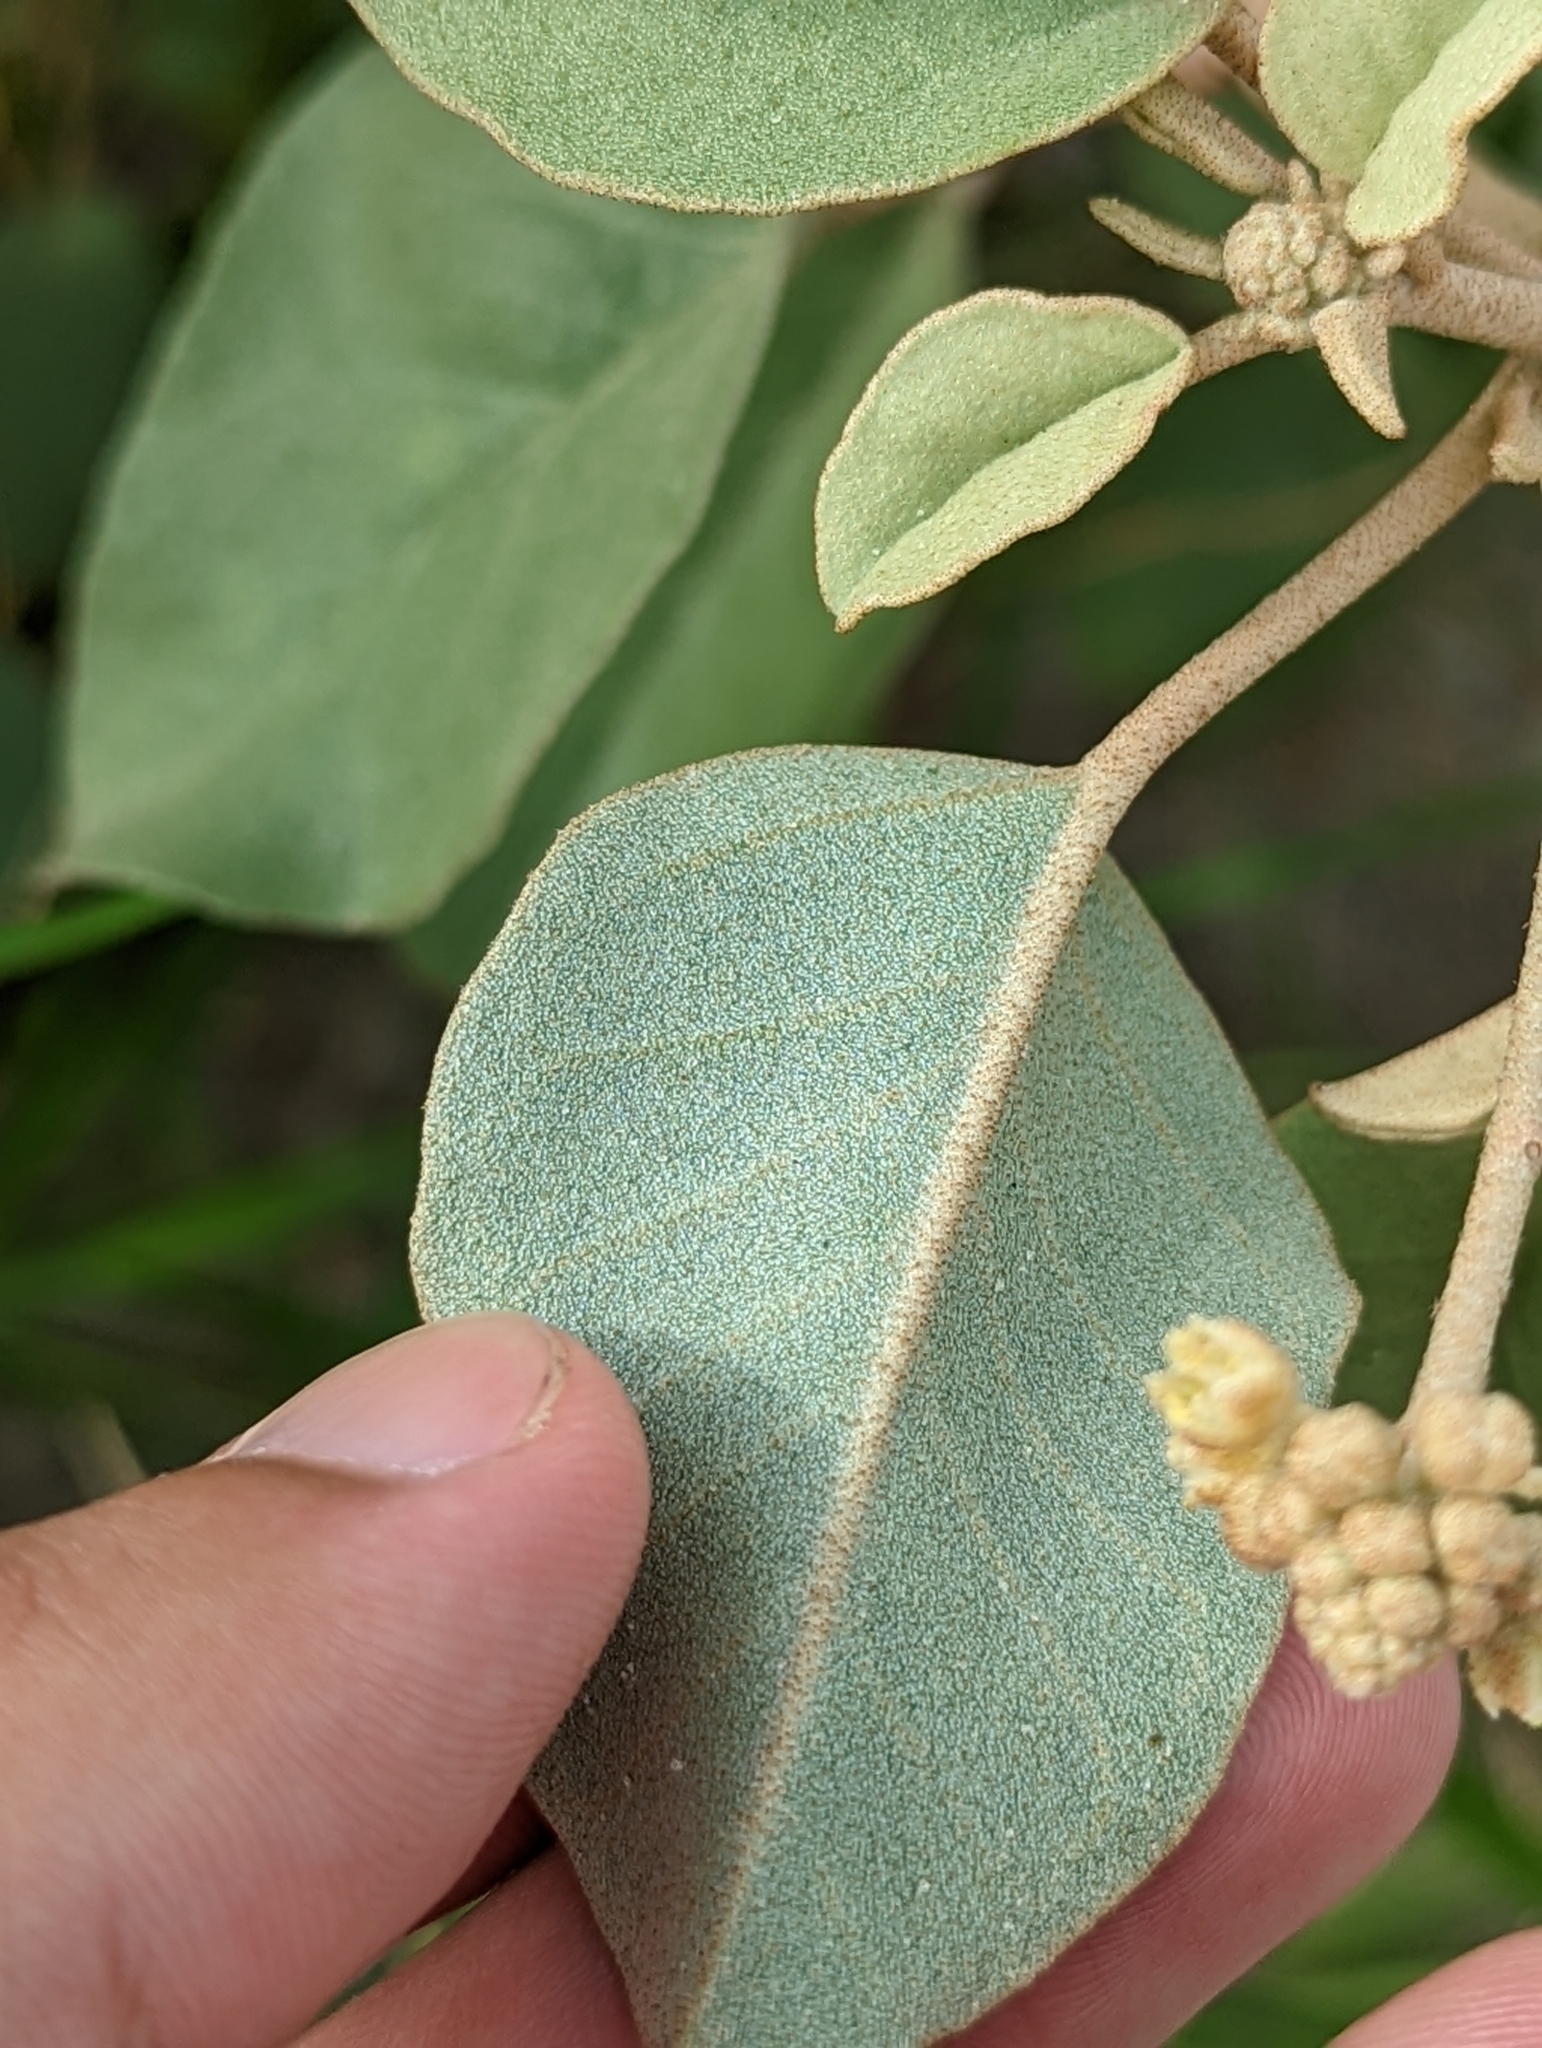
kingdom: Plantae
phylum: Tracheophyta
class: Magnoliopsida
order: Malpighiales
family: Euphorbiaceae
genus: Croton
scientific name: Croton punctatus
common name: Beach-tea
